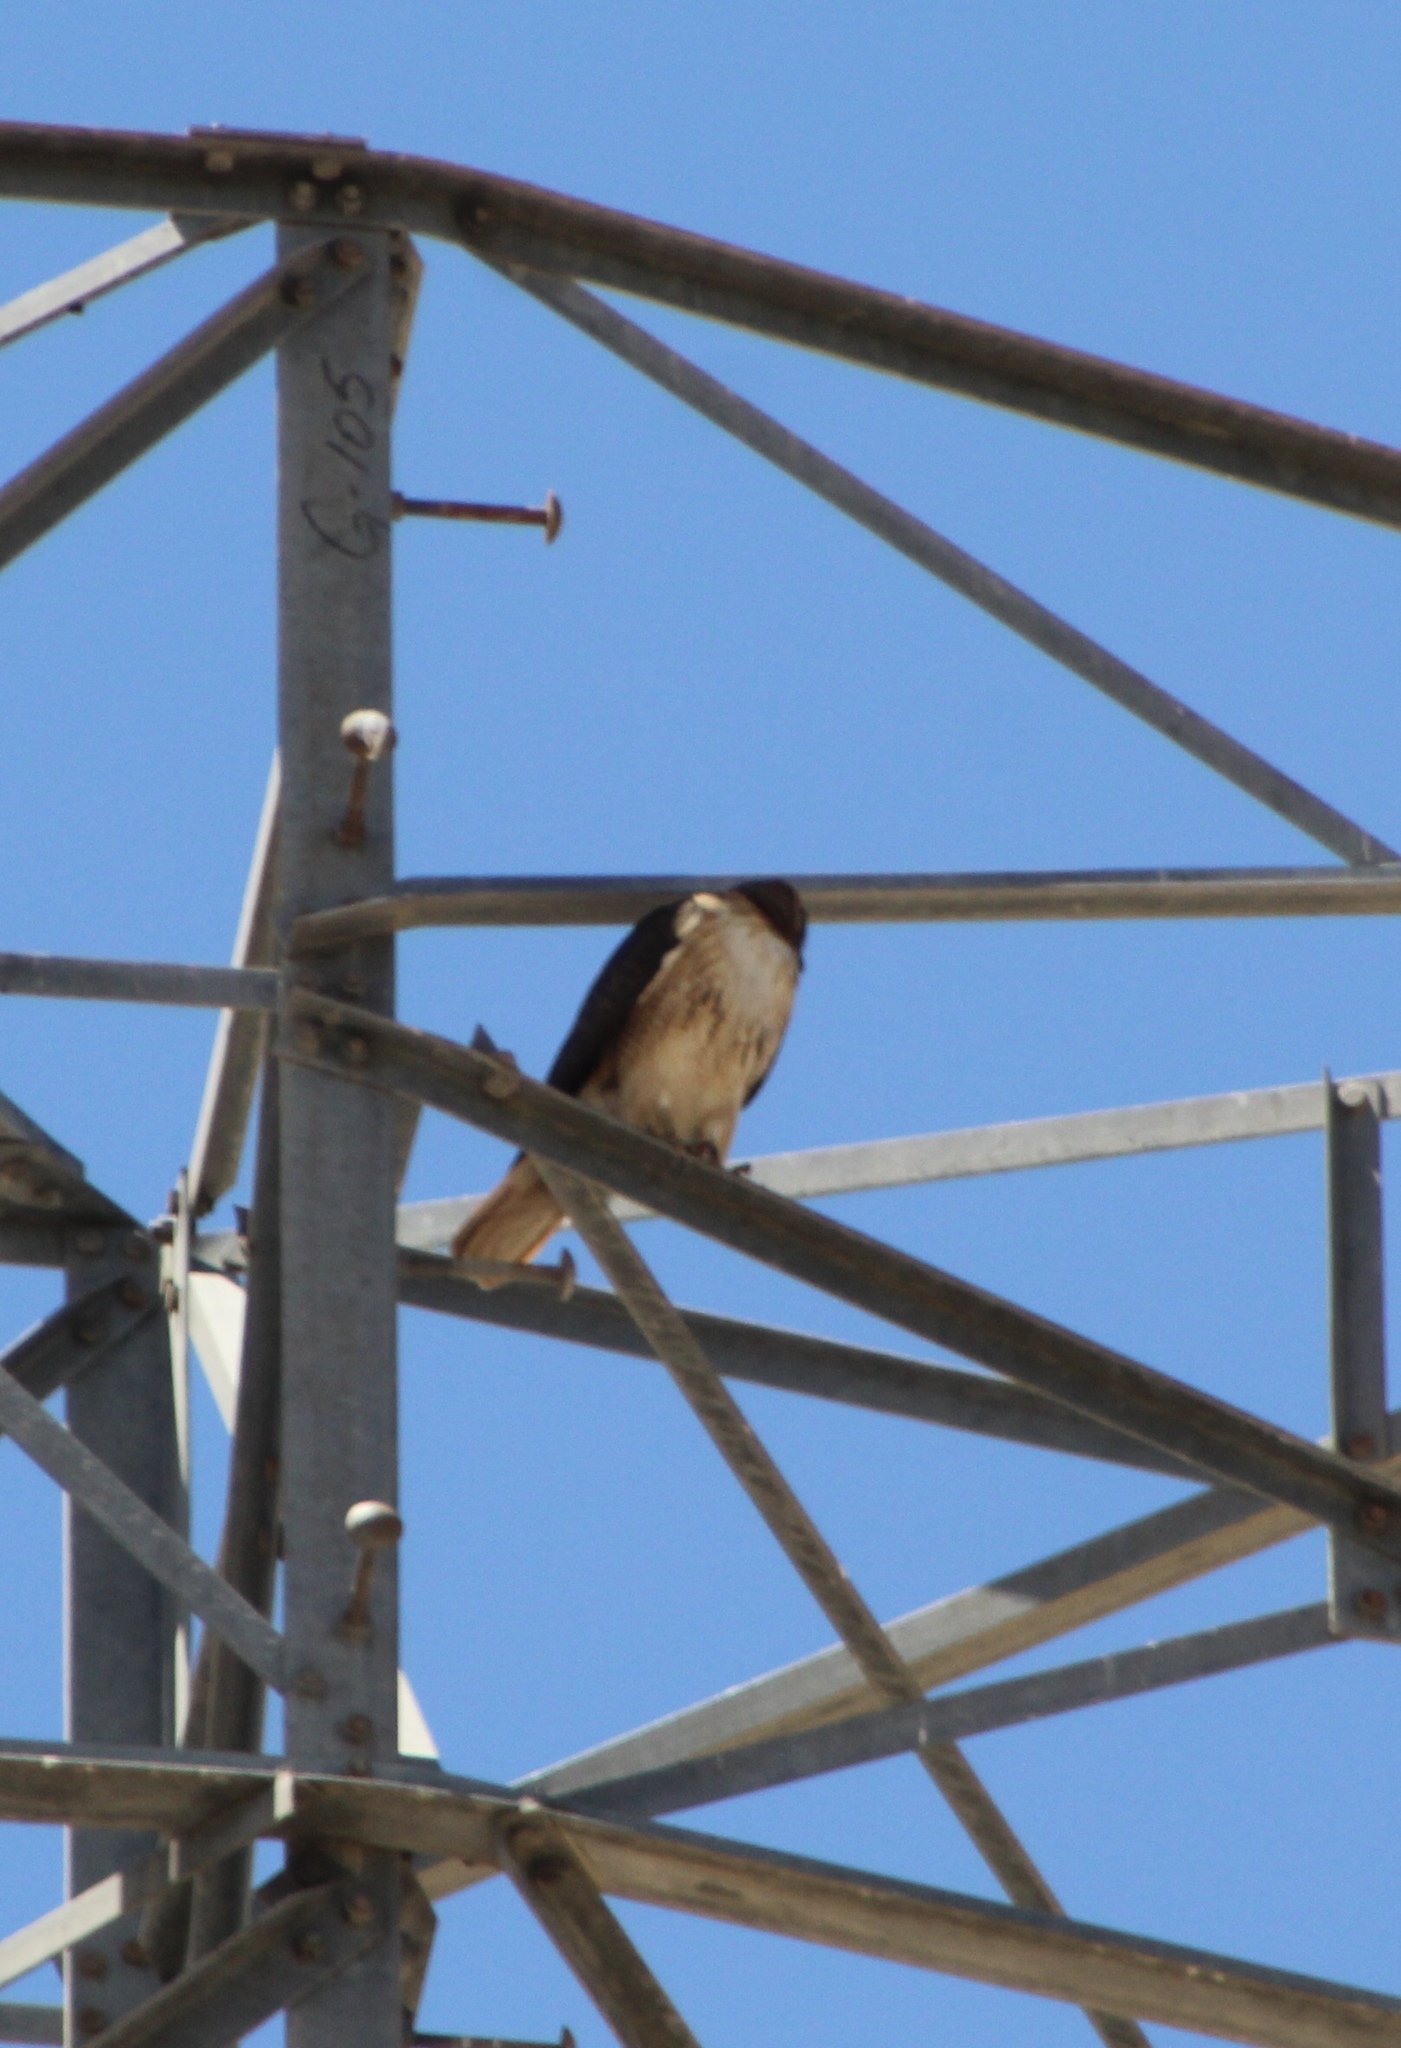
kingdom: Animalia
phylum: Chordata
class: Aves
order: Accipitriformes
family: Accipitridae
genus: Buteo
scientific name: Buteo jamaicensis
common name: Red-tailed hawk
